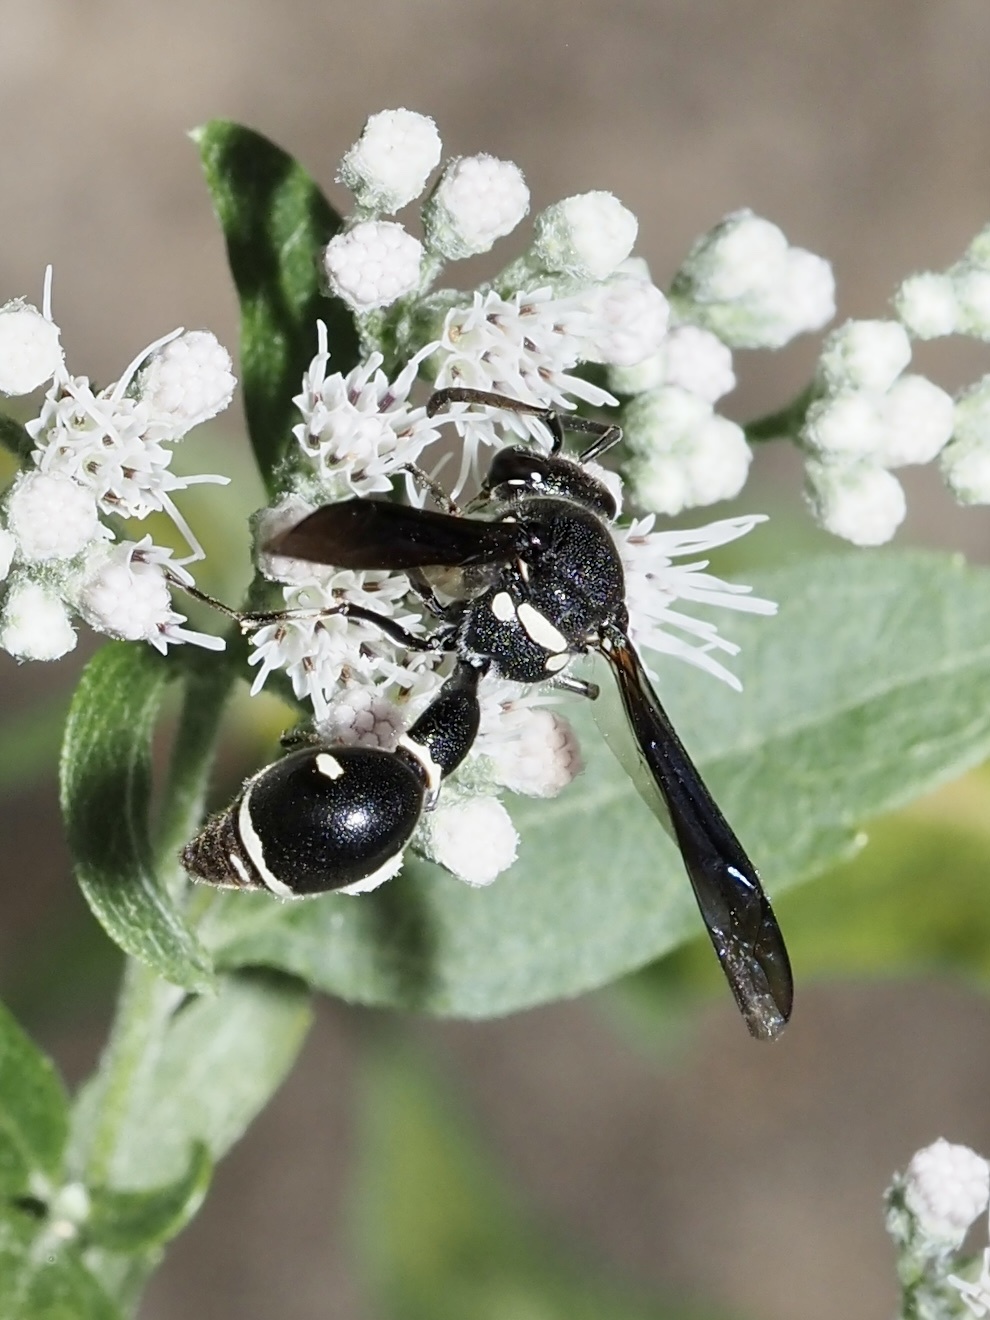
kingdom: Animalia
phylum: Arthropoda
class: Insecta
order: Hymenoptera
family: Vespidae
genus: Eumenes
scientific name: Eumenes fraternus
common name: Fraternal potter wasp
